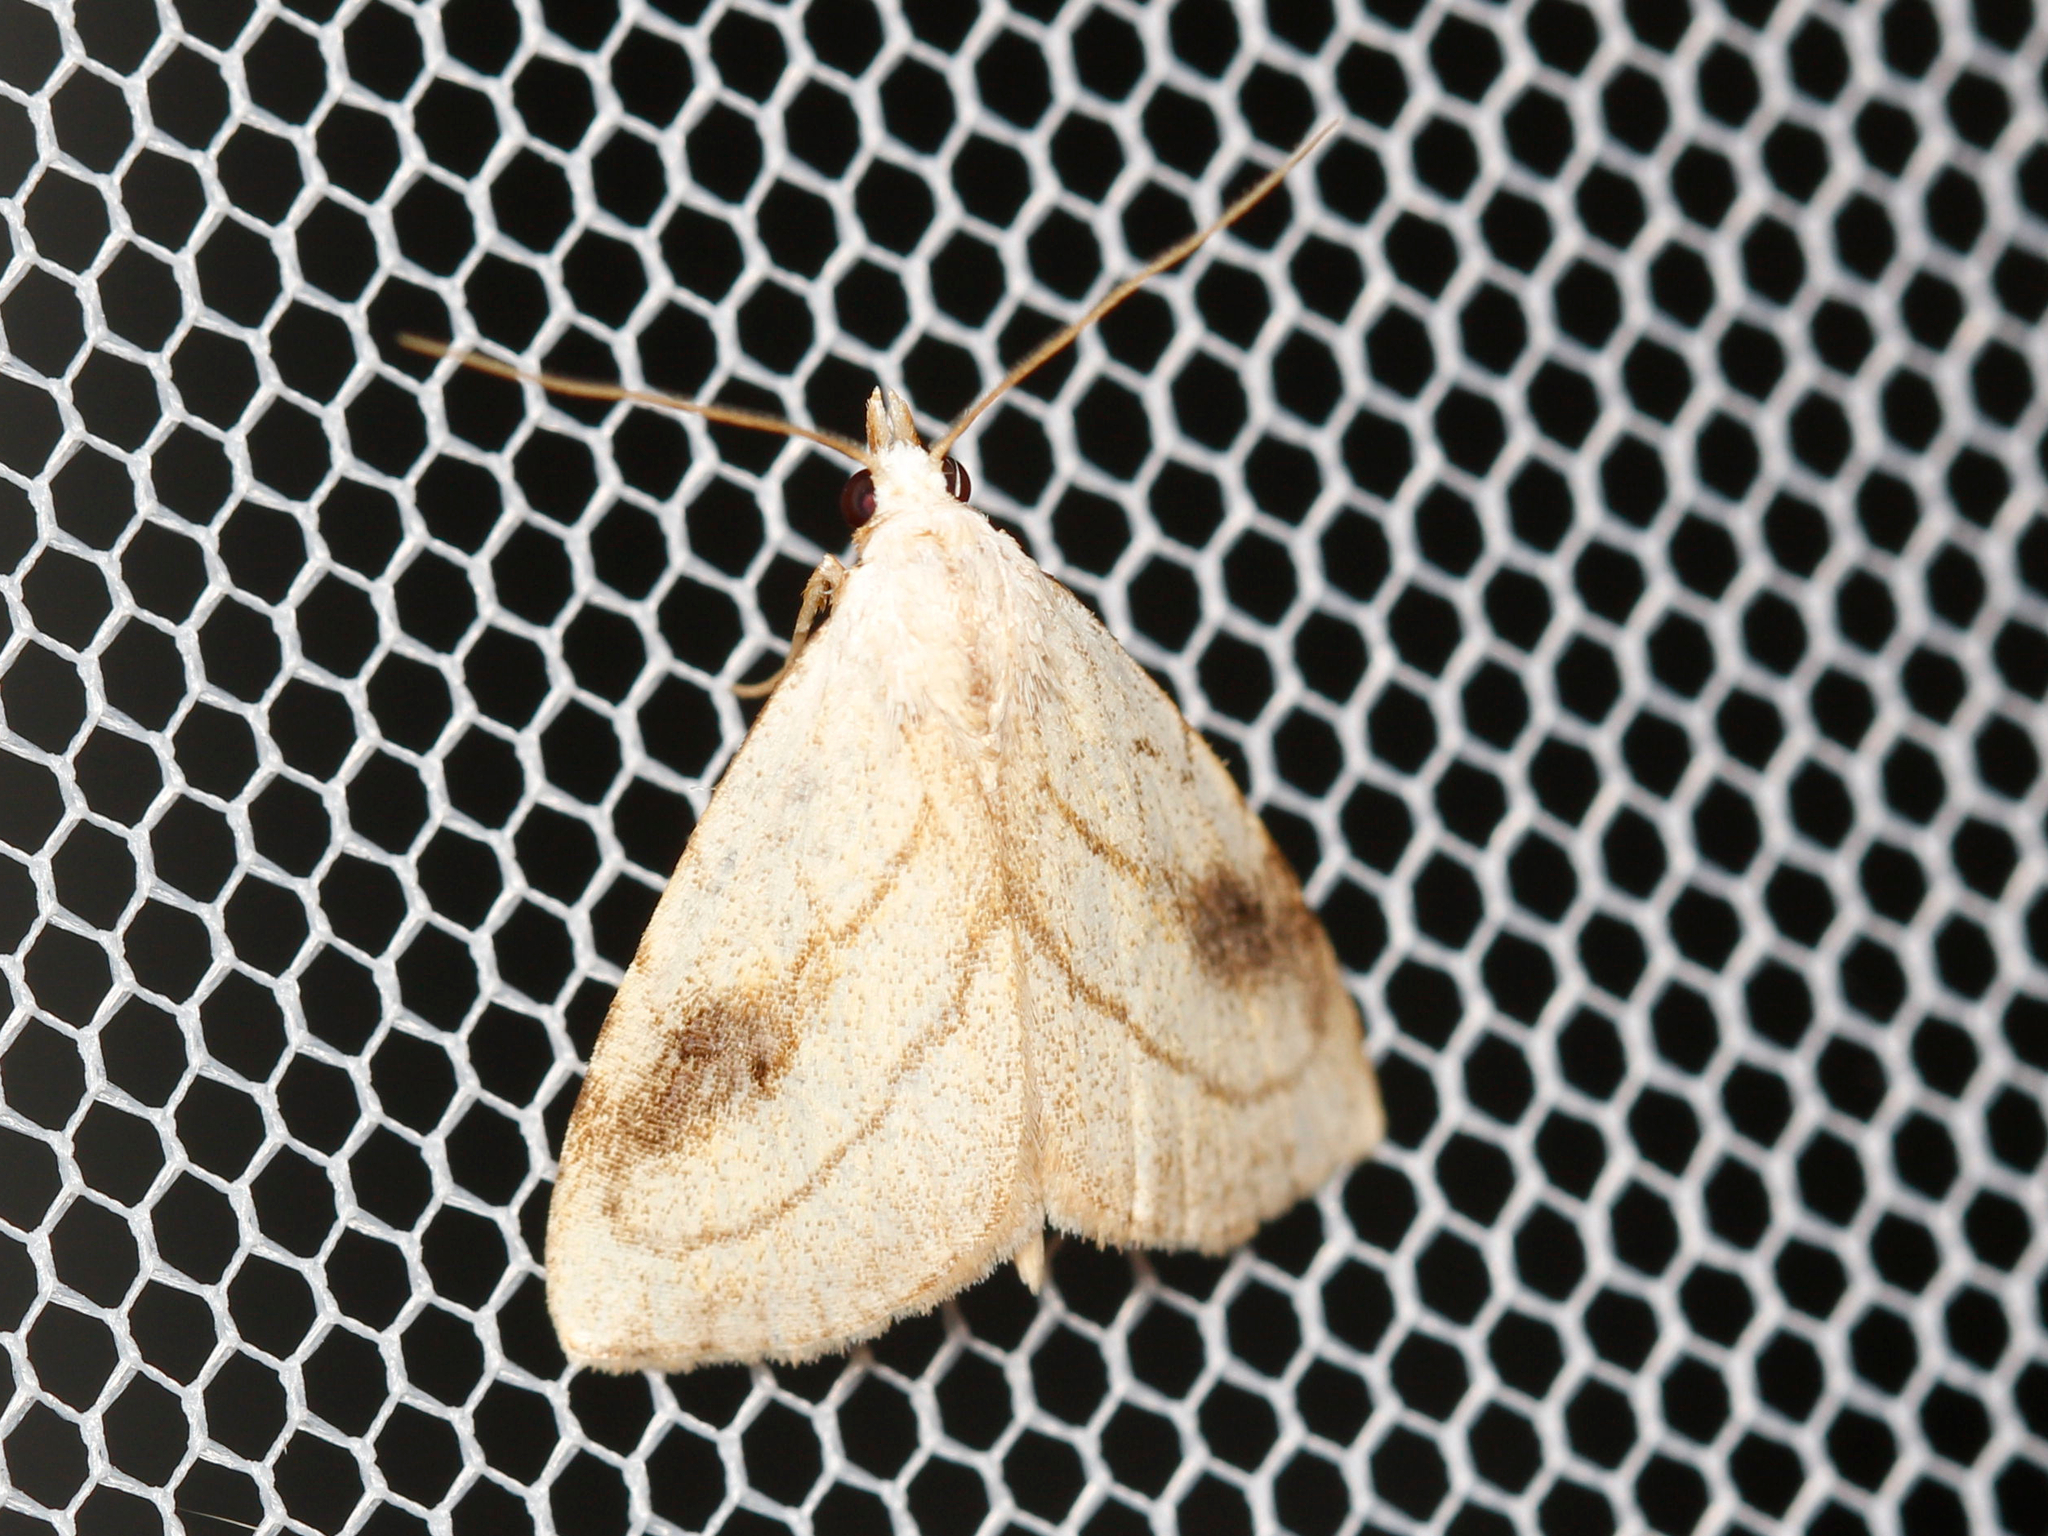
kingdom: Animalia
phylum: Arthropoda
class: Insecta
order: Lepidoptera
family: Erebidae
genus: Rivula
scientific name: Rivula propinqualis
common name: Spotted grass moth
